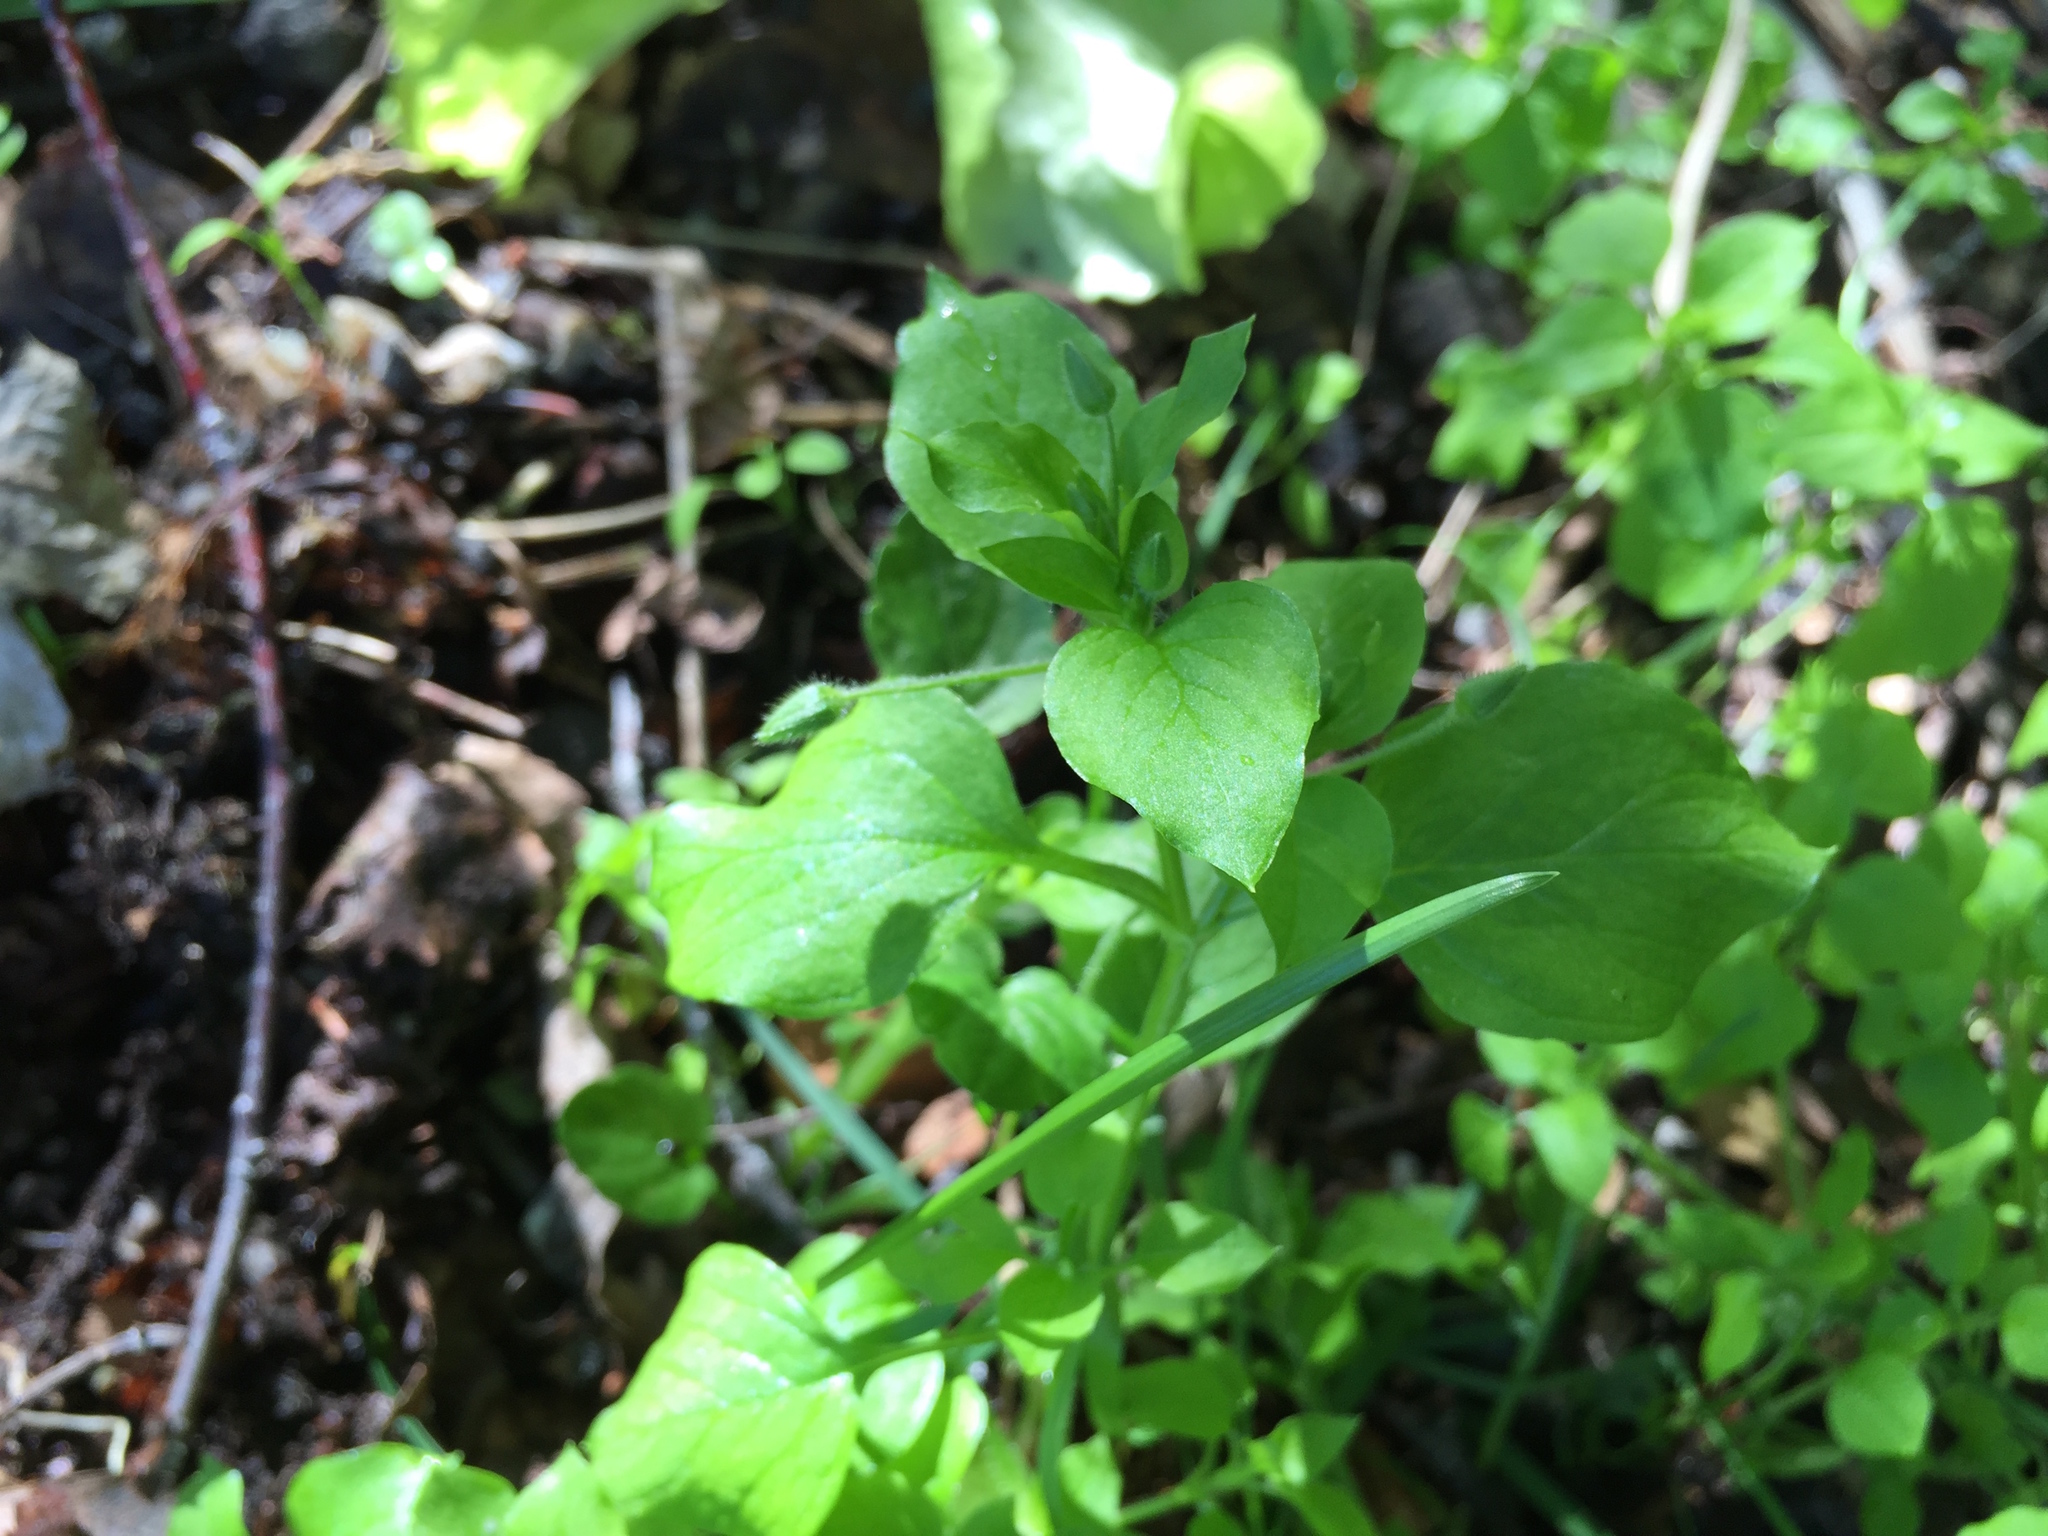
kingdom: Plantae
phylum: Tracheophyta
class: Magnoliopsida
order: Caryophyllales
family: Caryophyllaceae
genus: Stellaria
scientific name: Stellaria media
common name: Common chickweed
